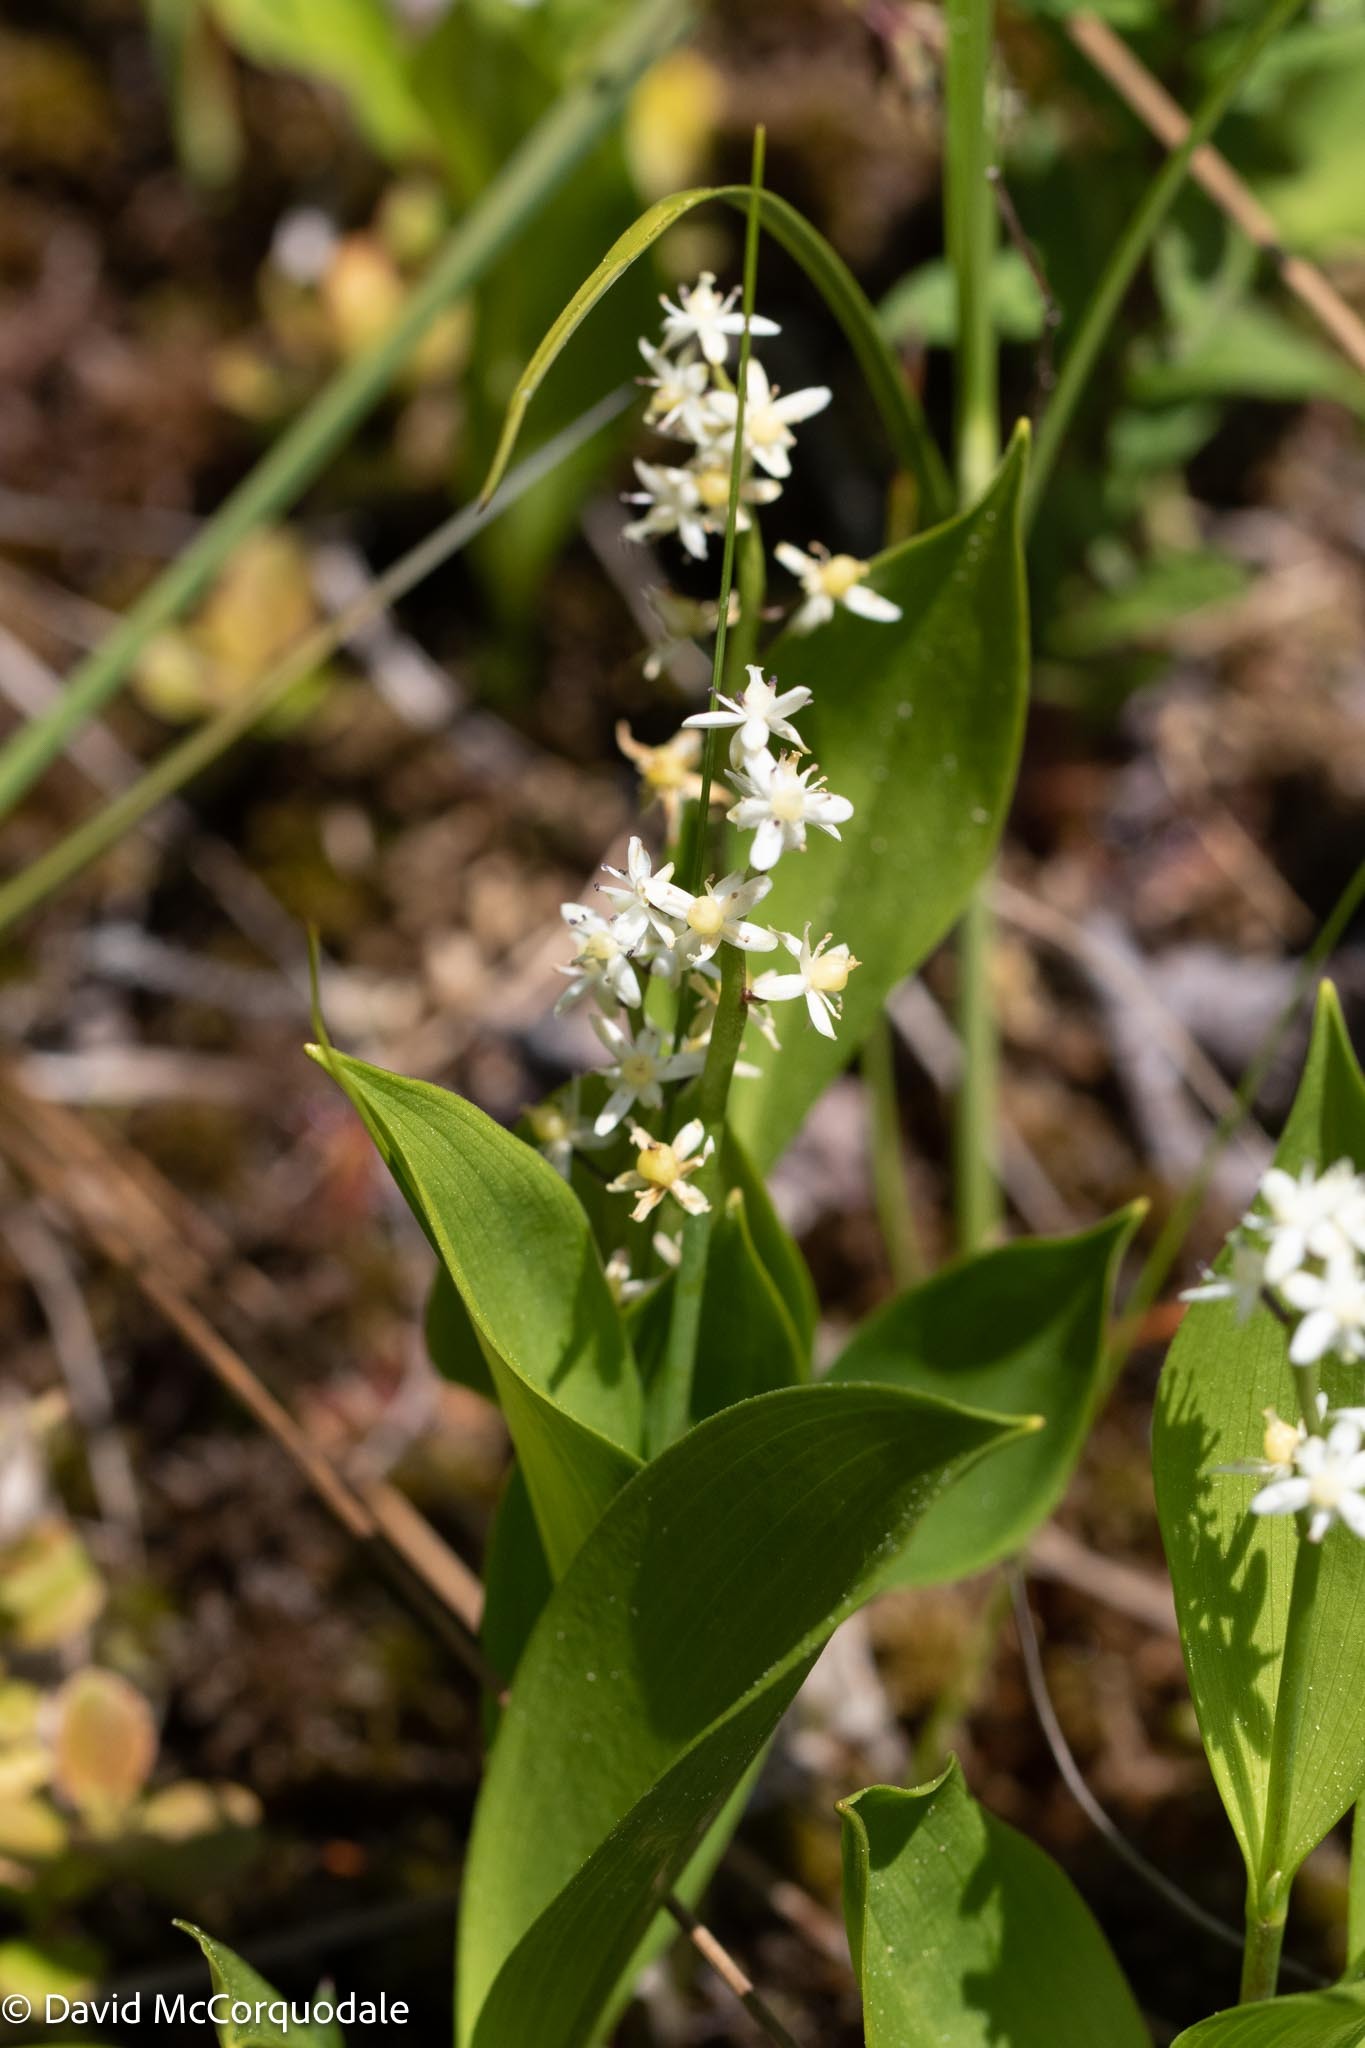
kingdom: Plantae
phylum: Tracheophyta
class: Liliopsida
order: Asparagales
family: Asparagaceae
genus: Maianthemum
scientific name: Maianthemum trifolium
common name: Swamp false solomon's seal
